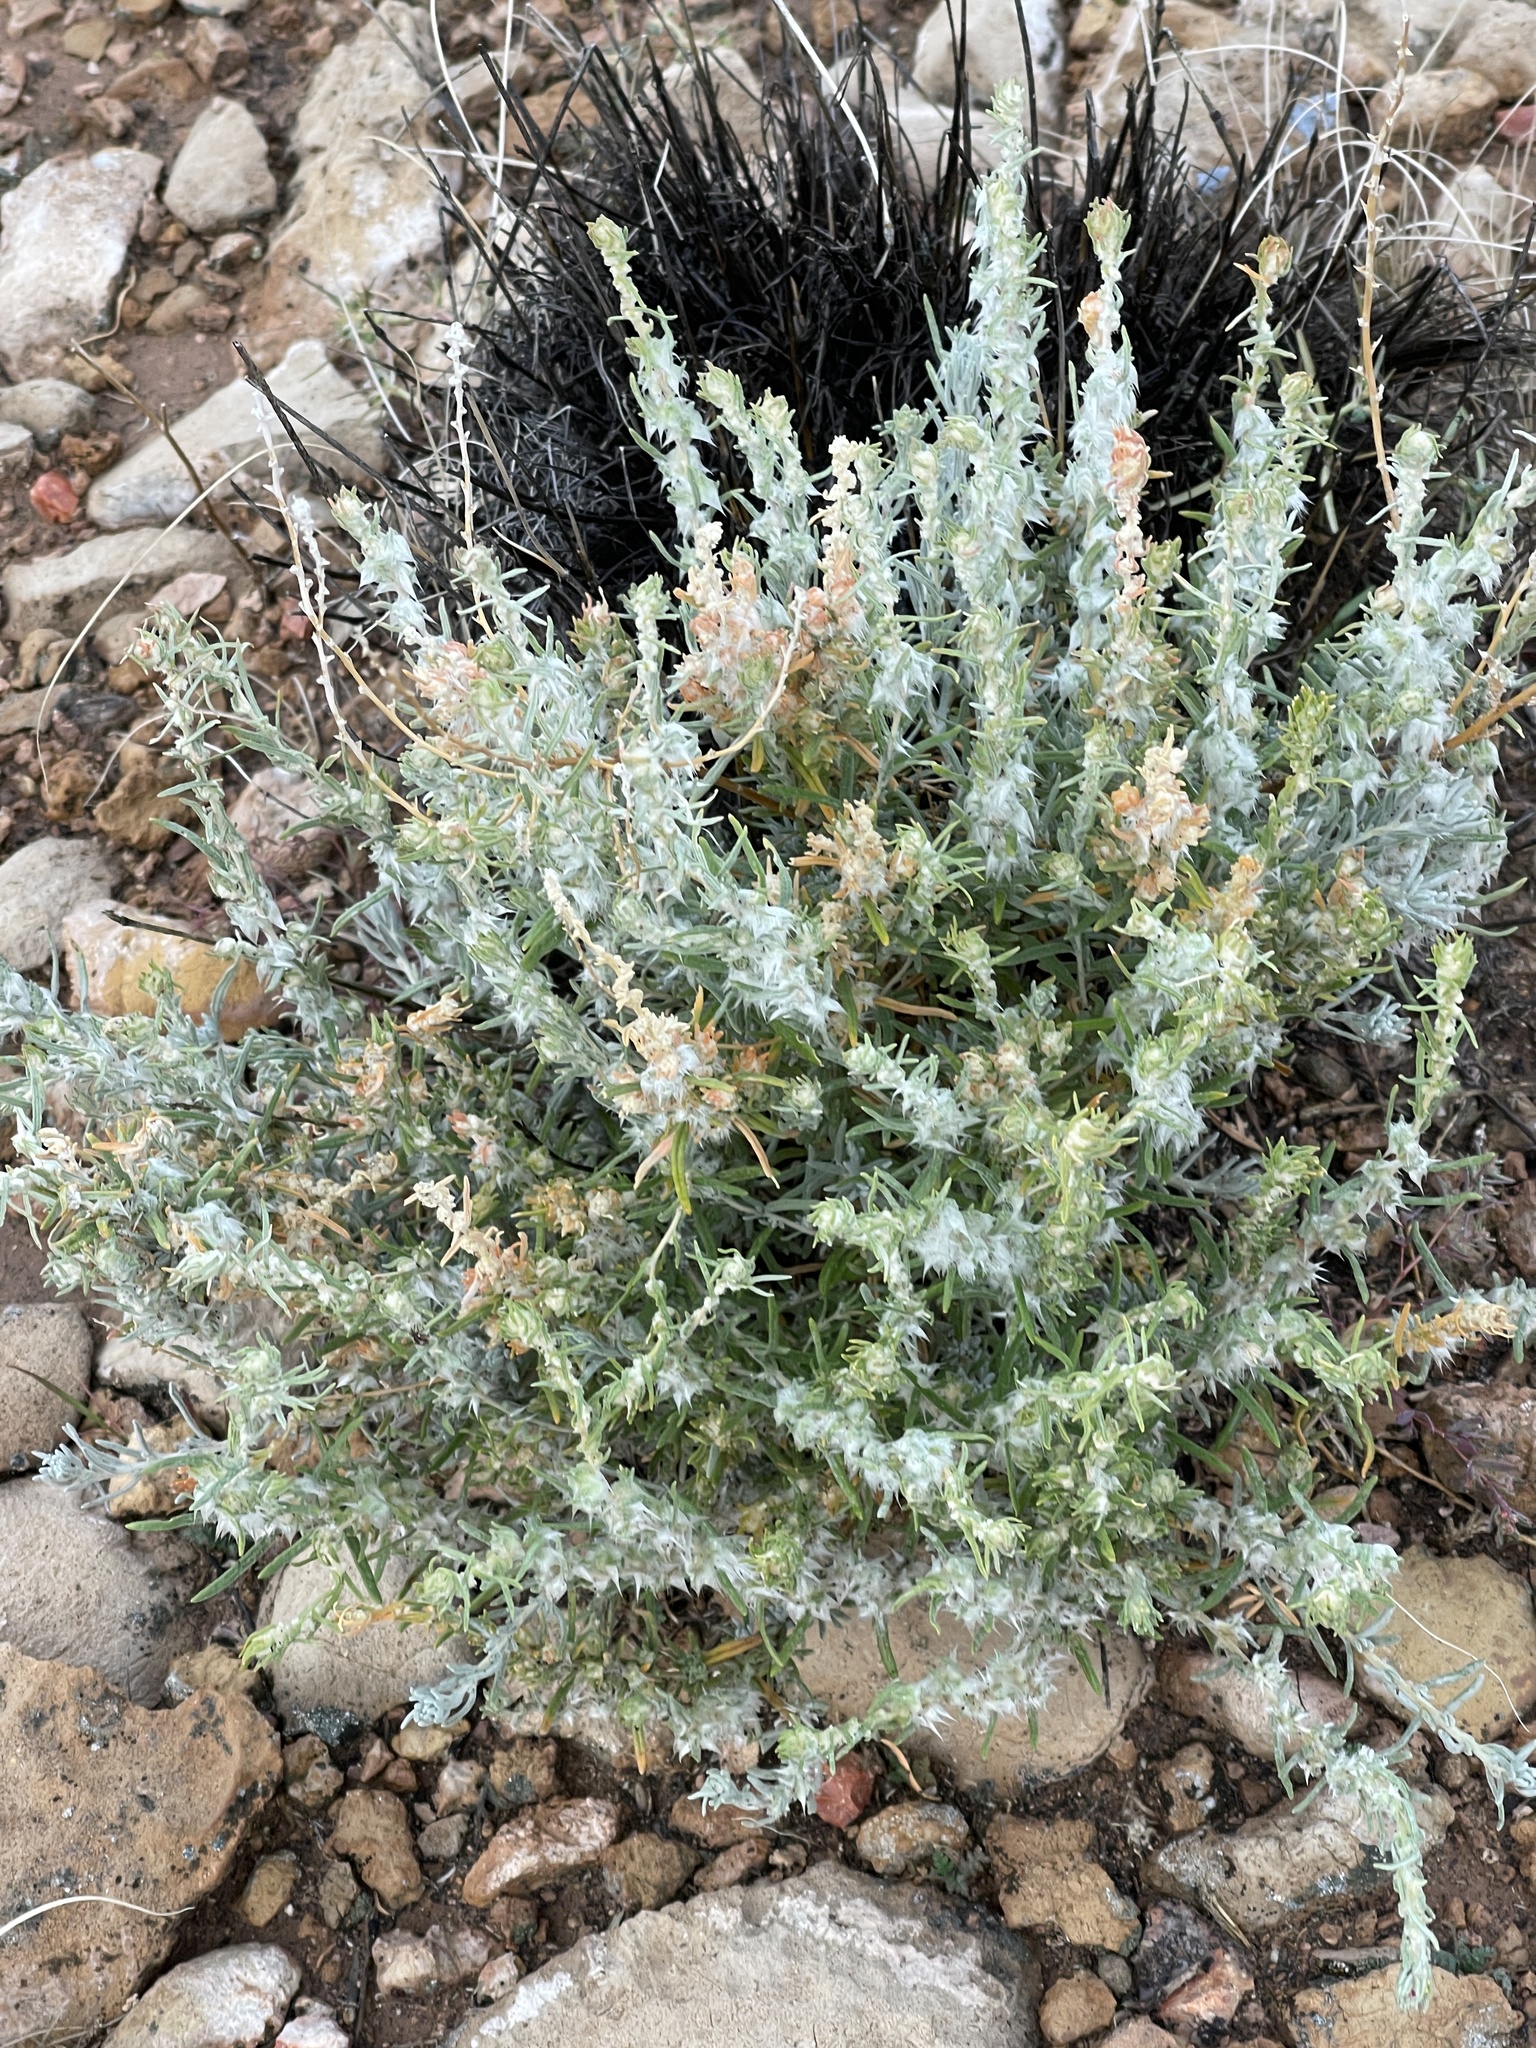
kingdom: Plantae
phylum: Tracheophyta
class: Magnoliopsida
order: Caryophyllales
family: Amaranthaceae
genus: Krascheninnikovia
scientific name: Krascheninnikovia lanata
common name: Winterfat
